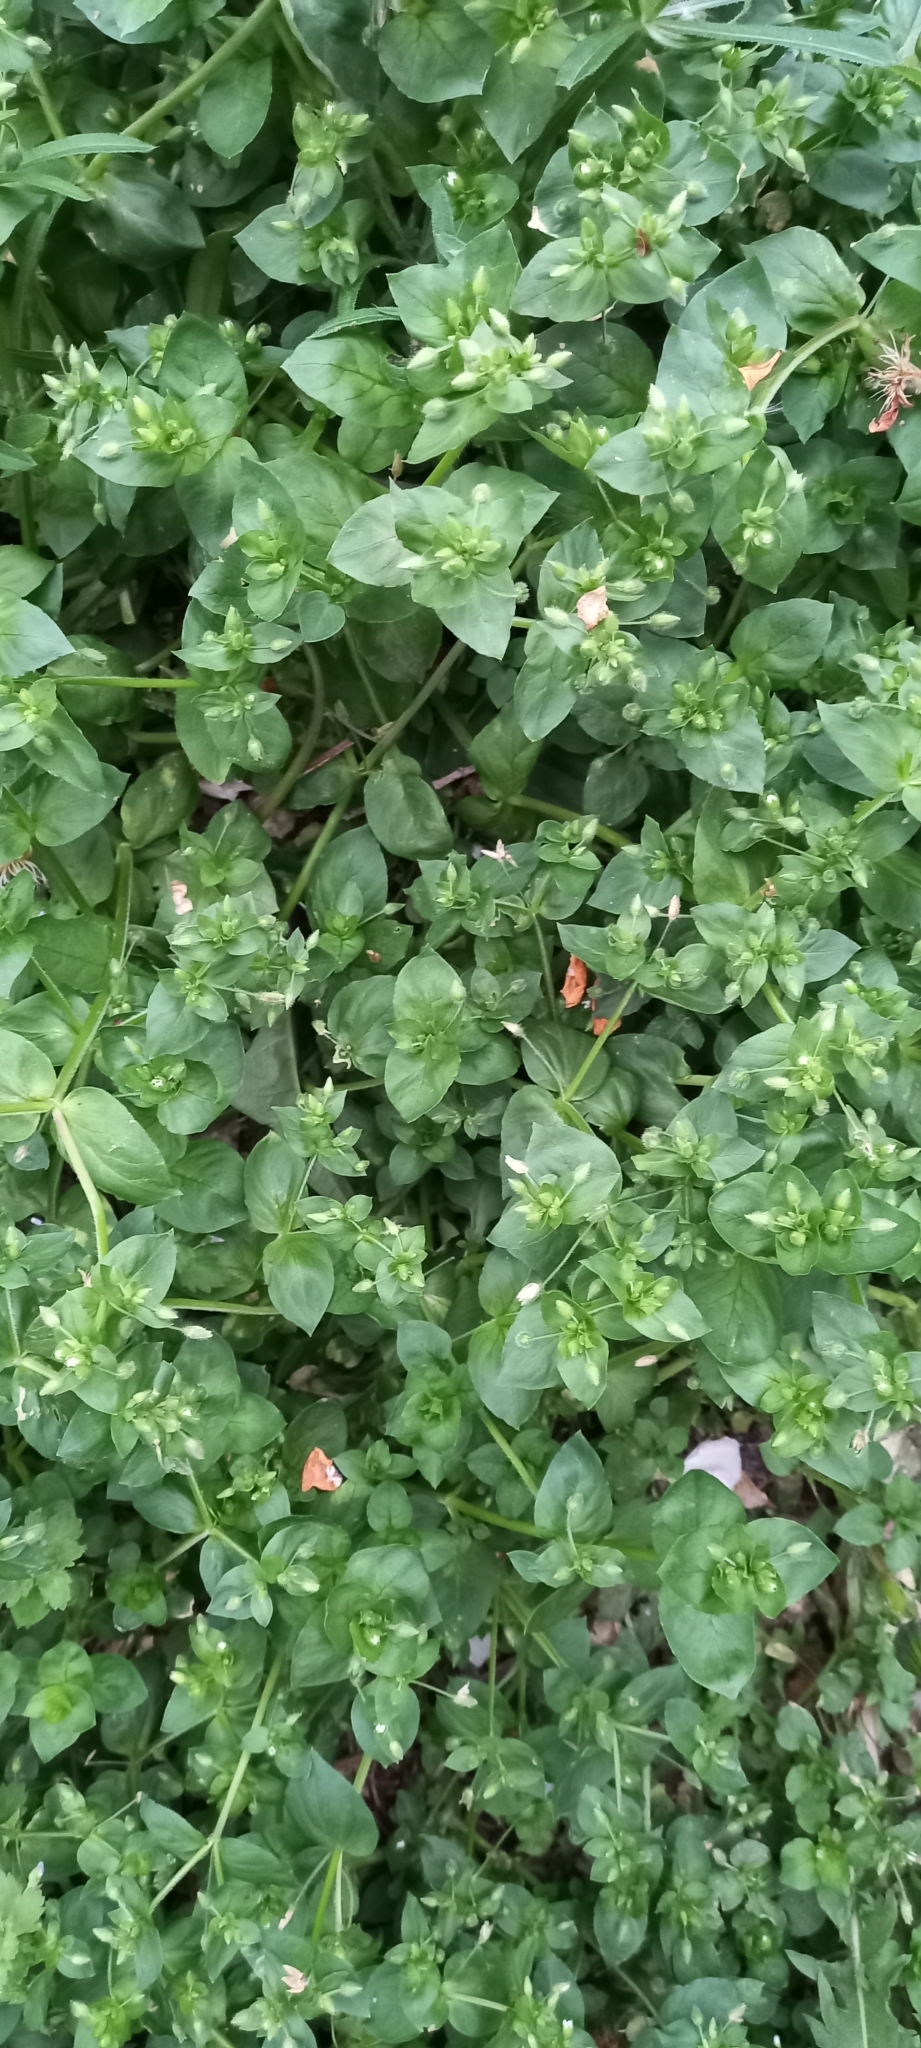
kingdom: Plantae
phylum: Tracheophyta
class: Magnoliopsida
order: Caryophyllales
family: Caryophyllaceae
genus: Stellaria
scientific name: Stellaria media
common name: Common chickweed
